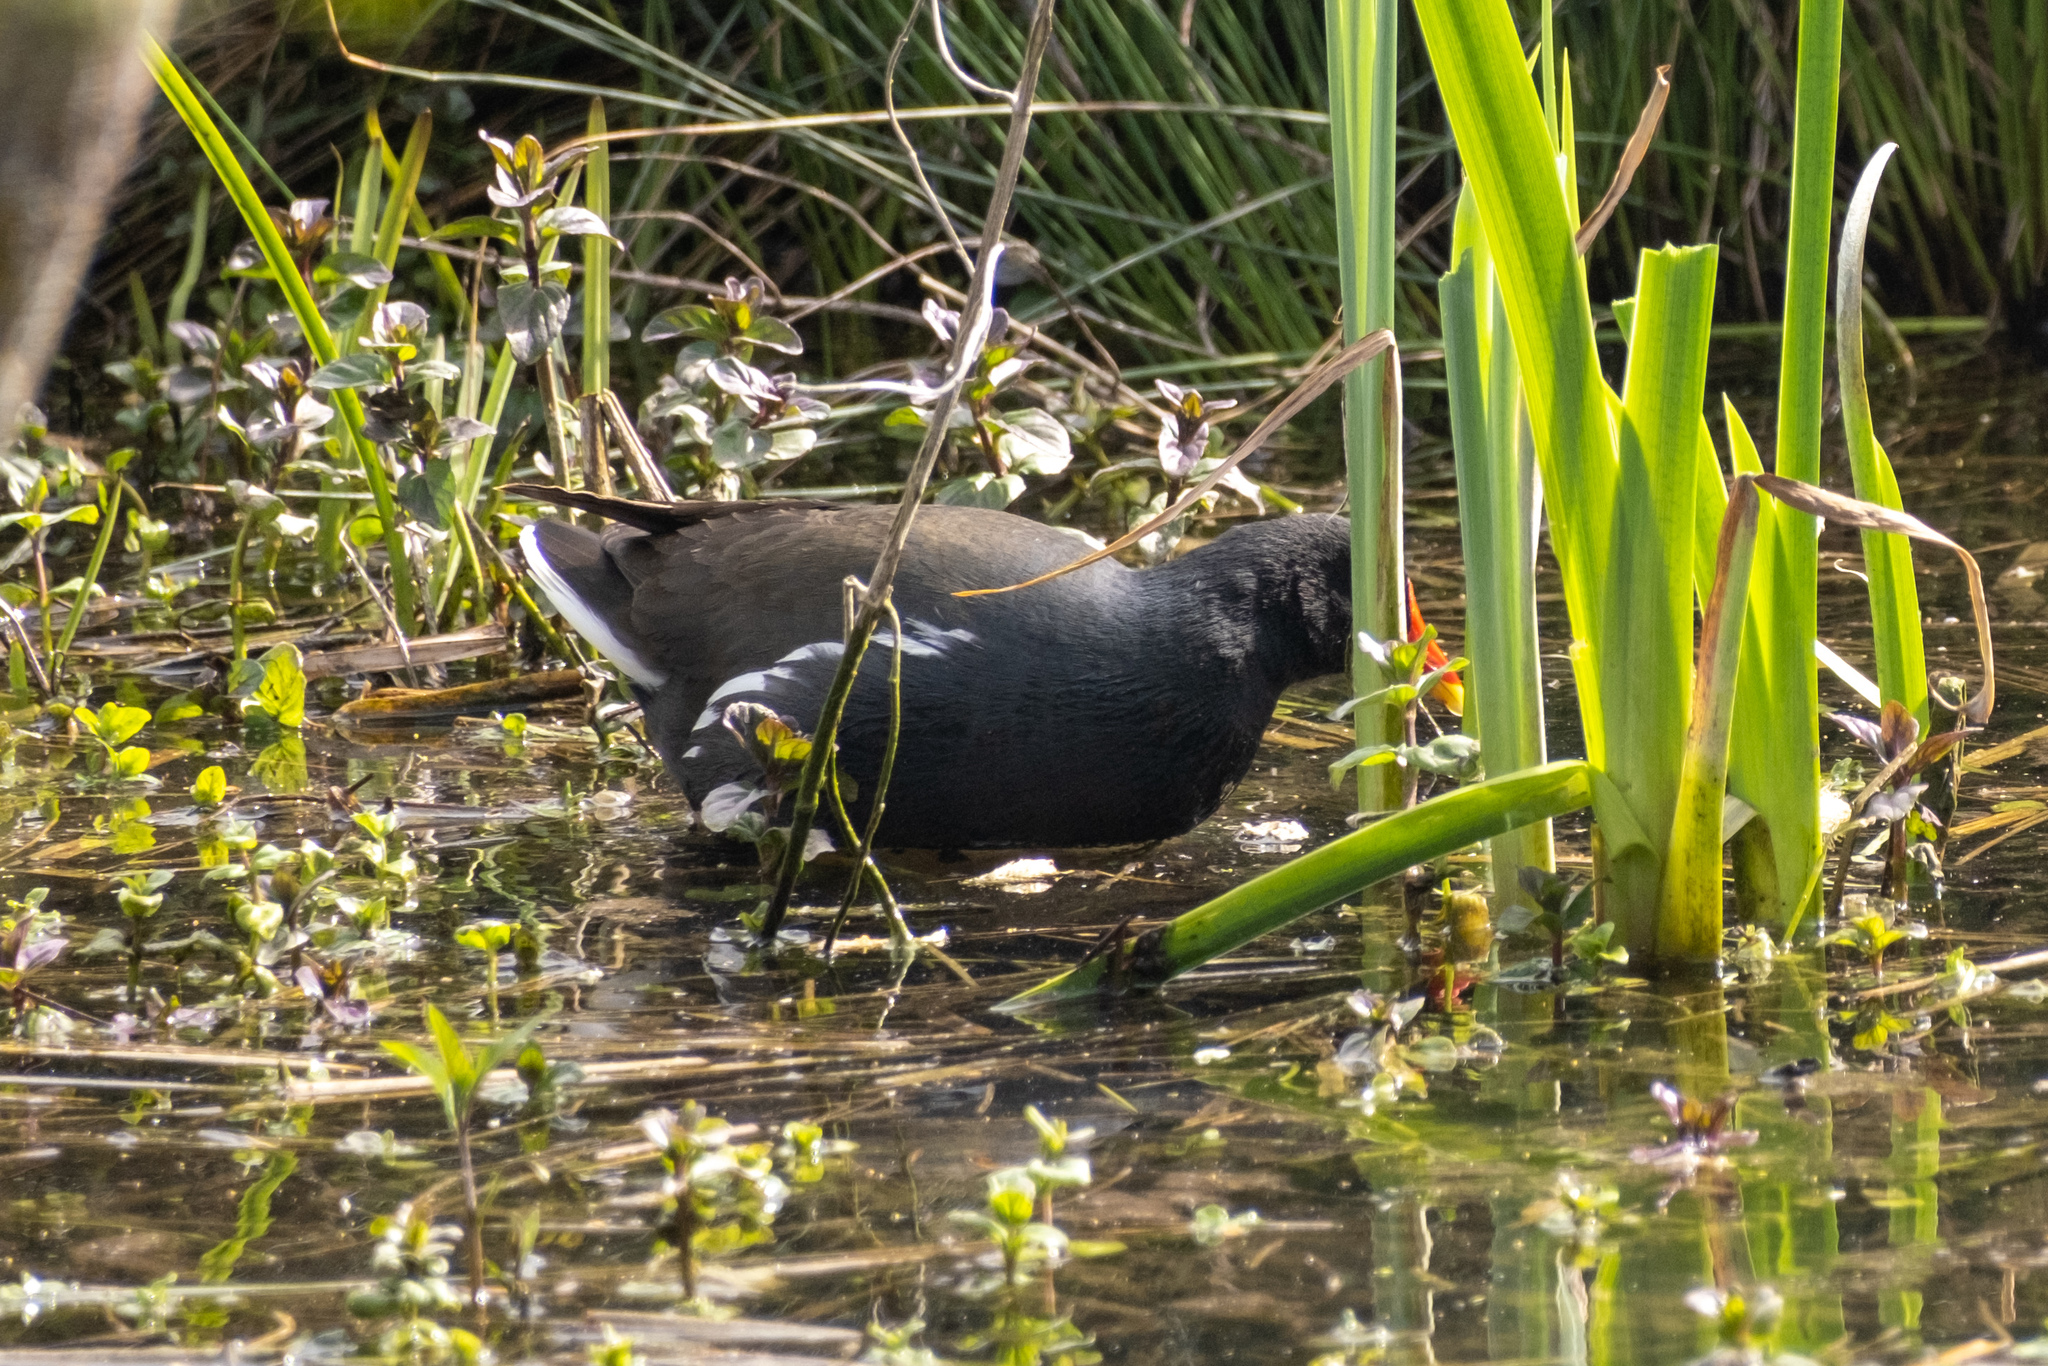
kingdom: Animalia
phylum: Chordata
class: Aves
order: Gruiformes
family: Rallidae
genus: Gallinula
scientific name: Gallinula chloropus
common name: Common moorhen
